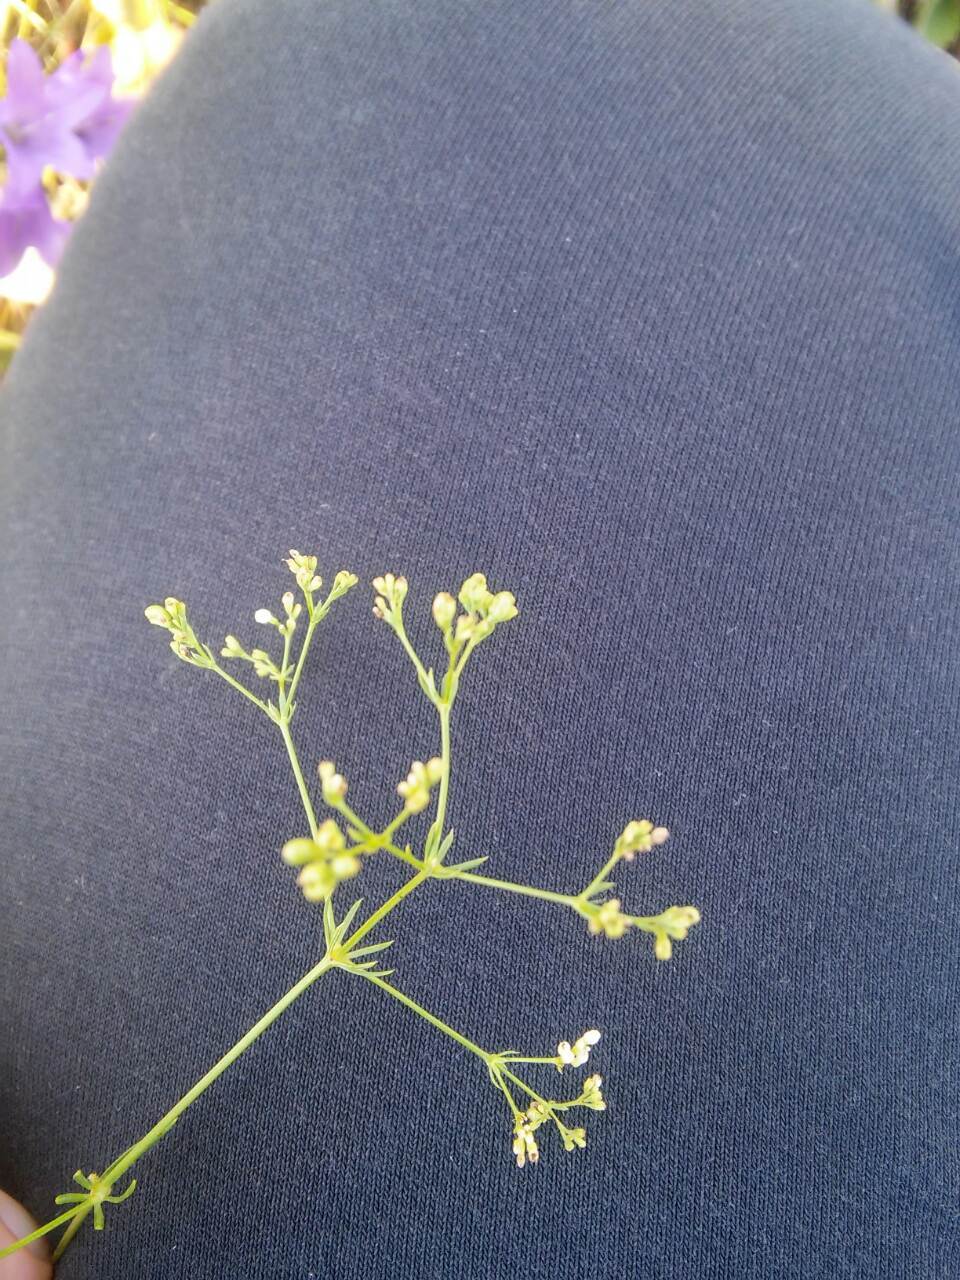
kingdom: Plantae
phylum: Tracheophyta
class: Magnoliopsida
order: Gentianales
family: Rubiaceae
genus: Galium
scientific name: Galium octonarium
